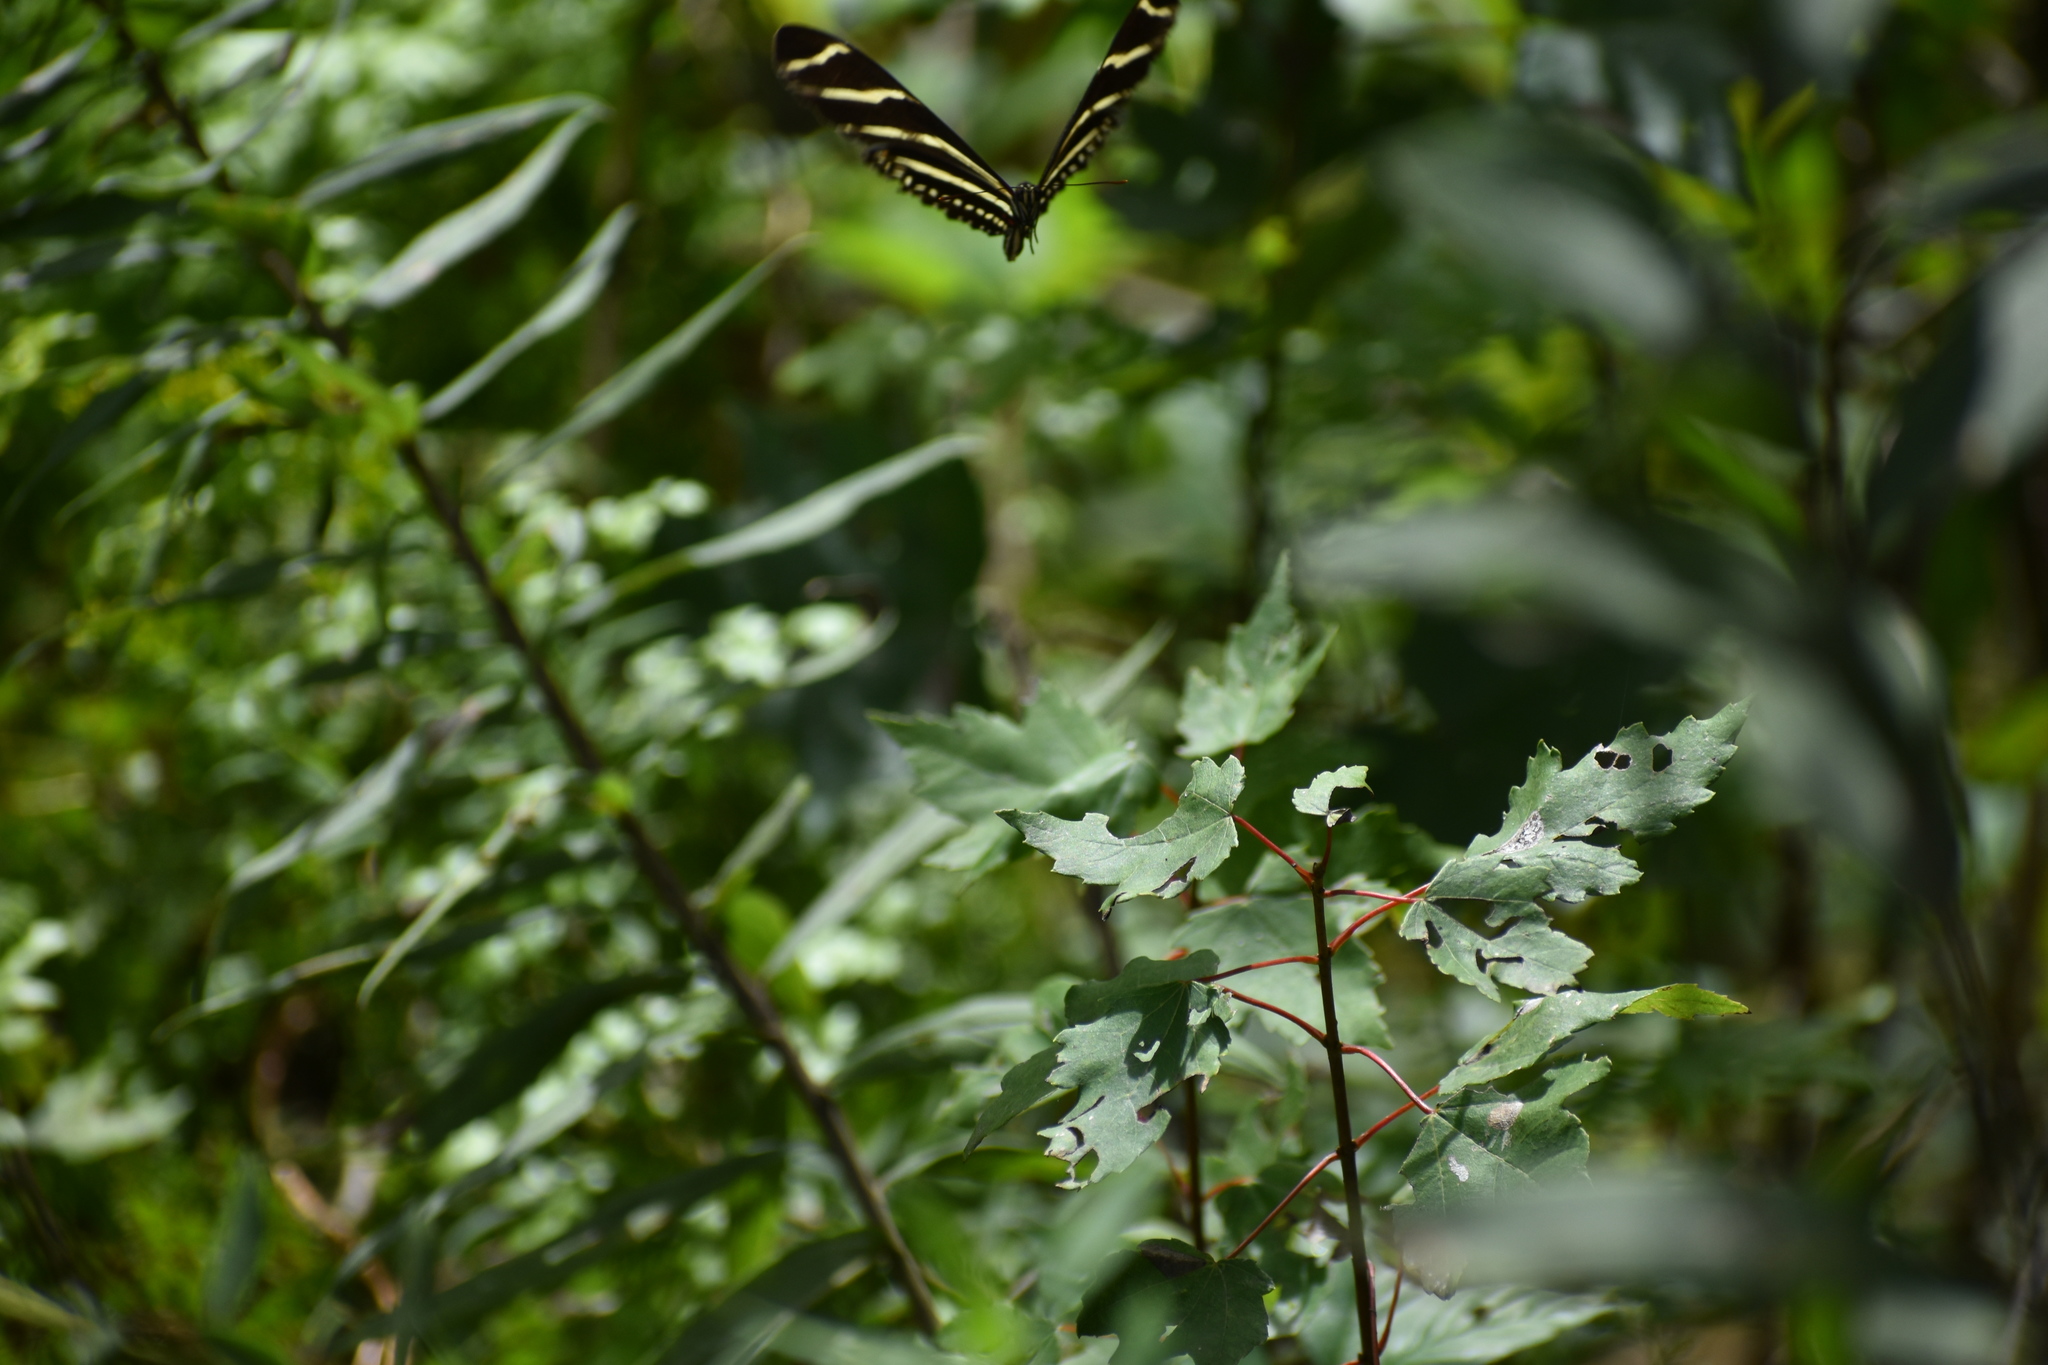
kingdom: Animalia
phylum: Arthropoda
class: Insecta
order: Lepidoptera
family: Nymphalidae
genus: Heliconius
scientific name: Heliconius charithonia
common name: Zebra long wing
